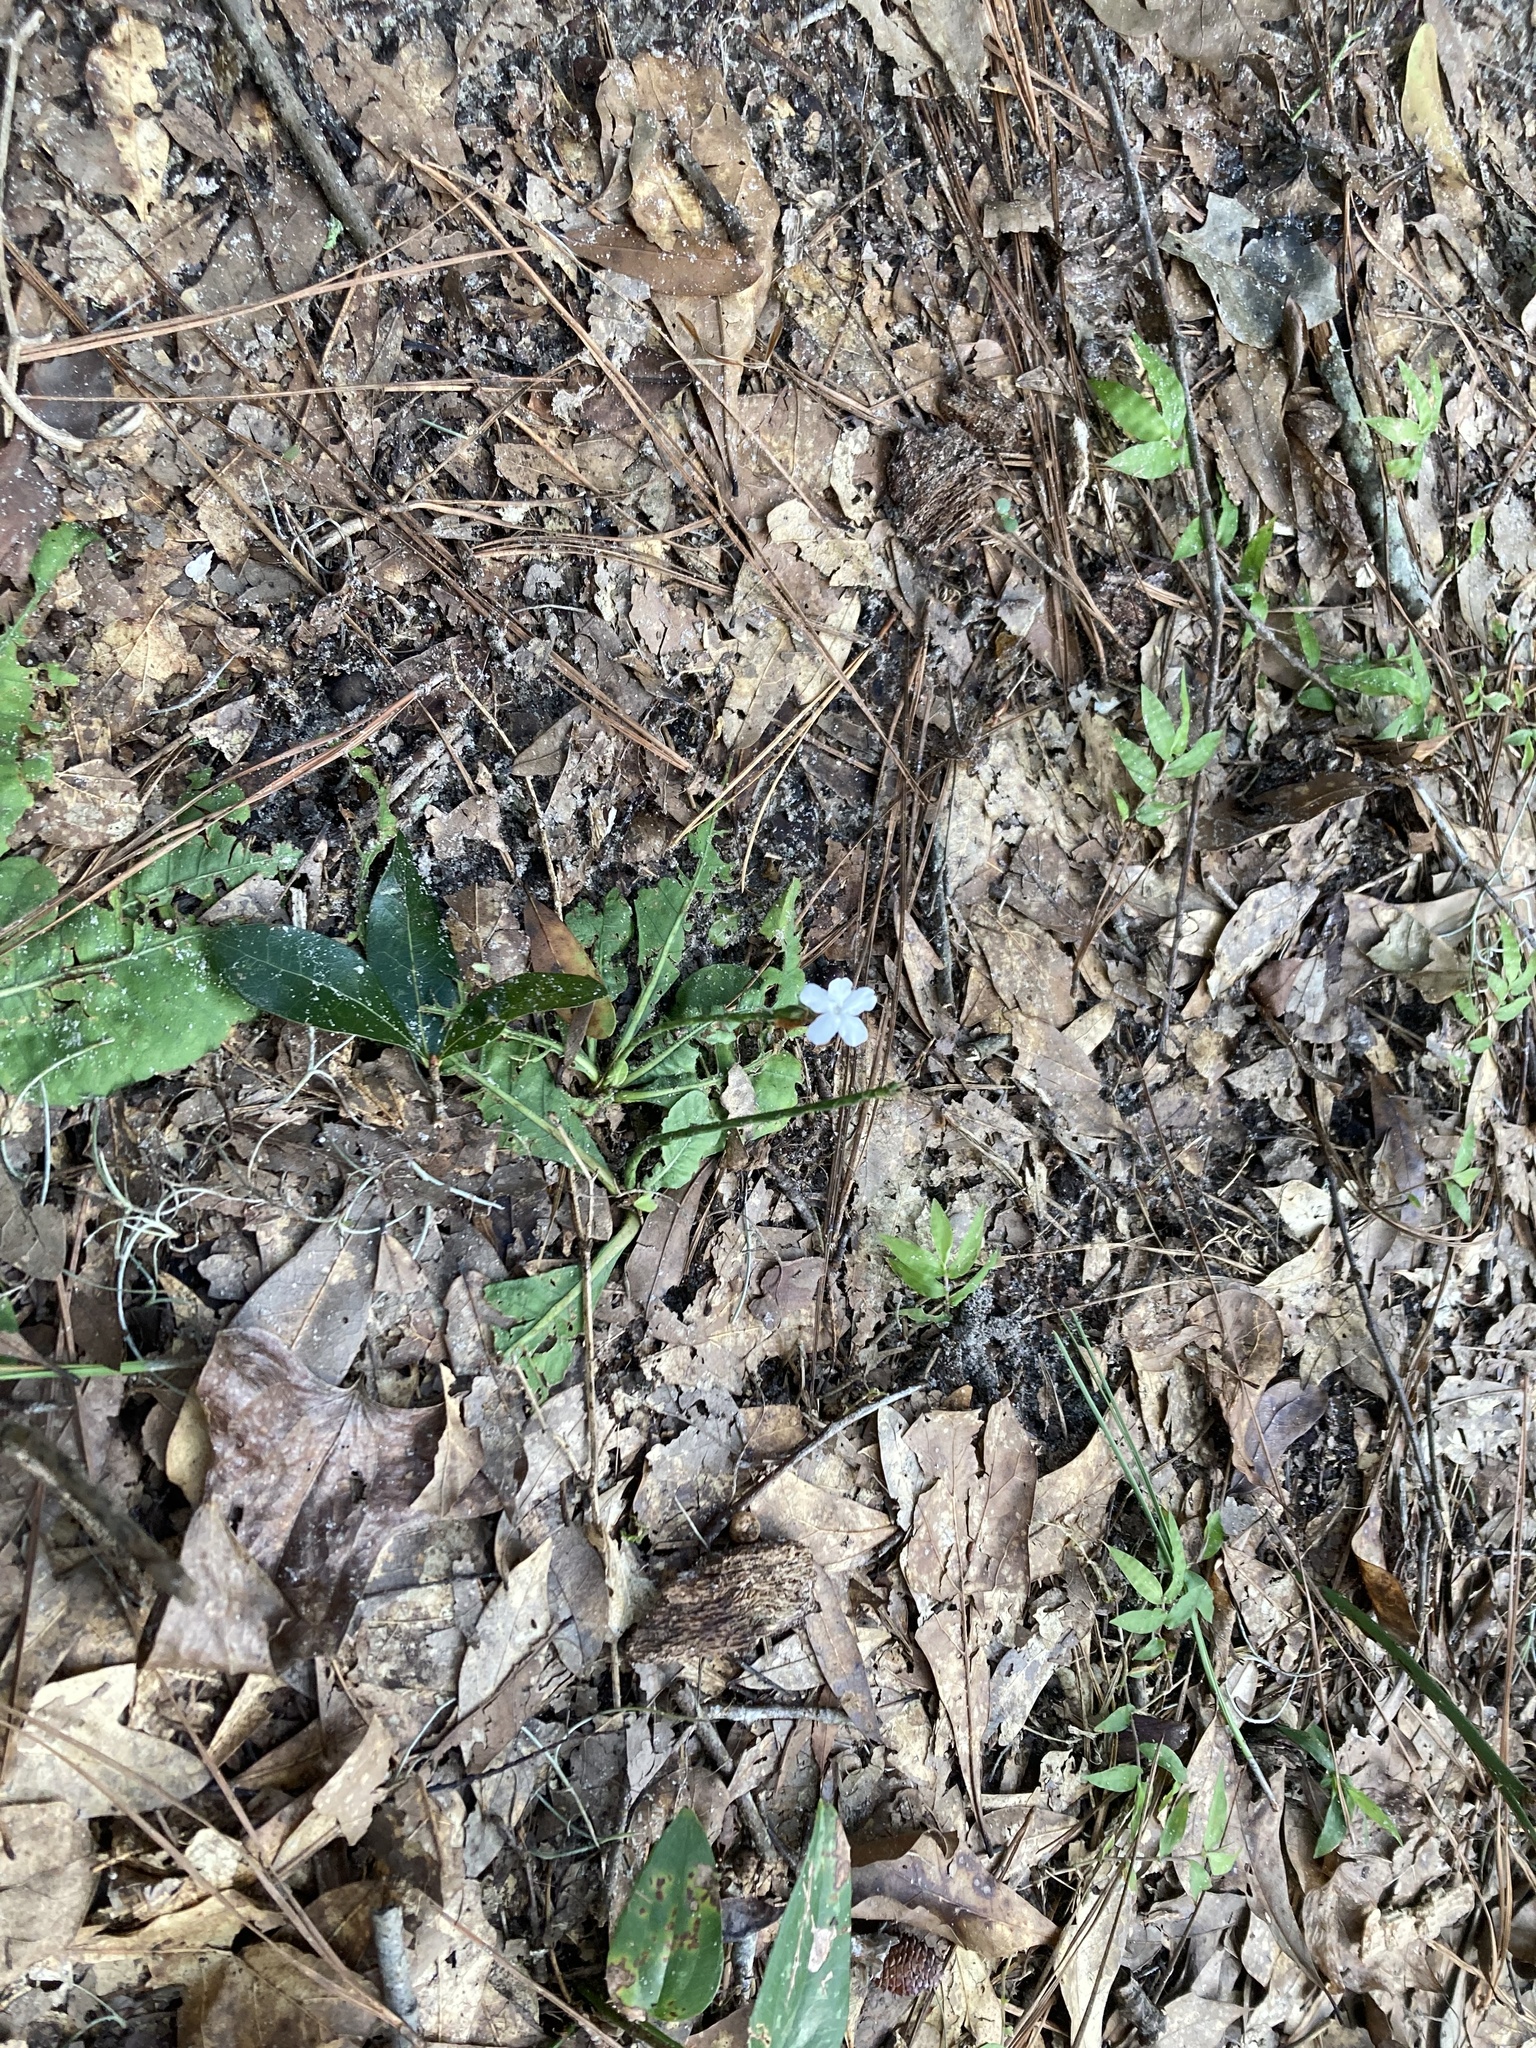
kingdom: Plantae
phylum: Tracheophyta
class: Magnoliopsida
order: Lamiales
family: Acanthaceae
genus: Elytraria
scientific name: Elytraria caroliniensis
